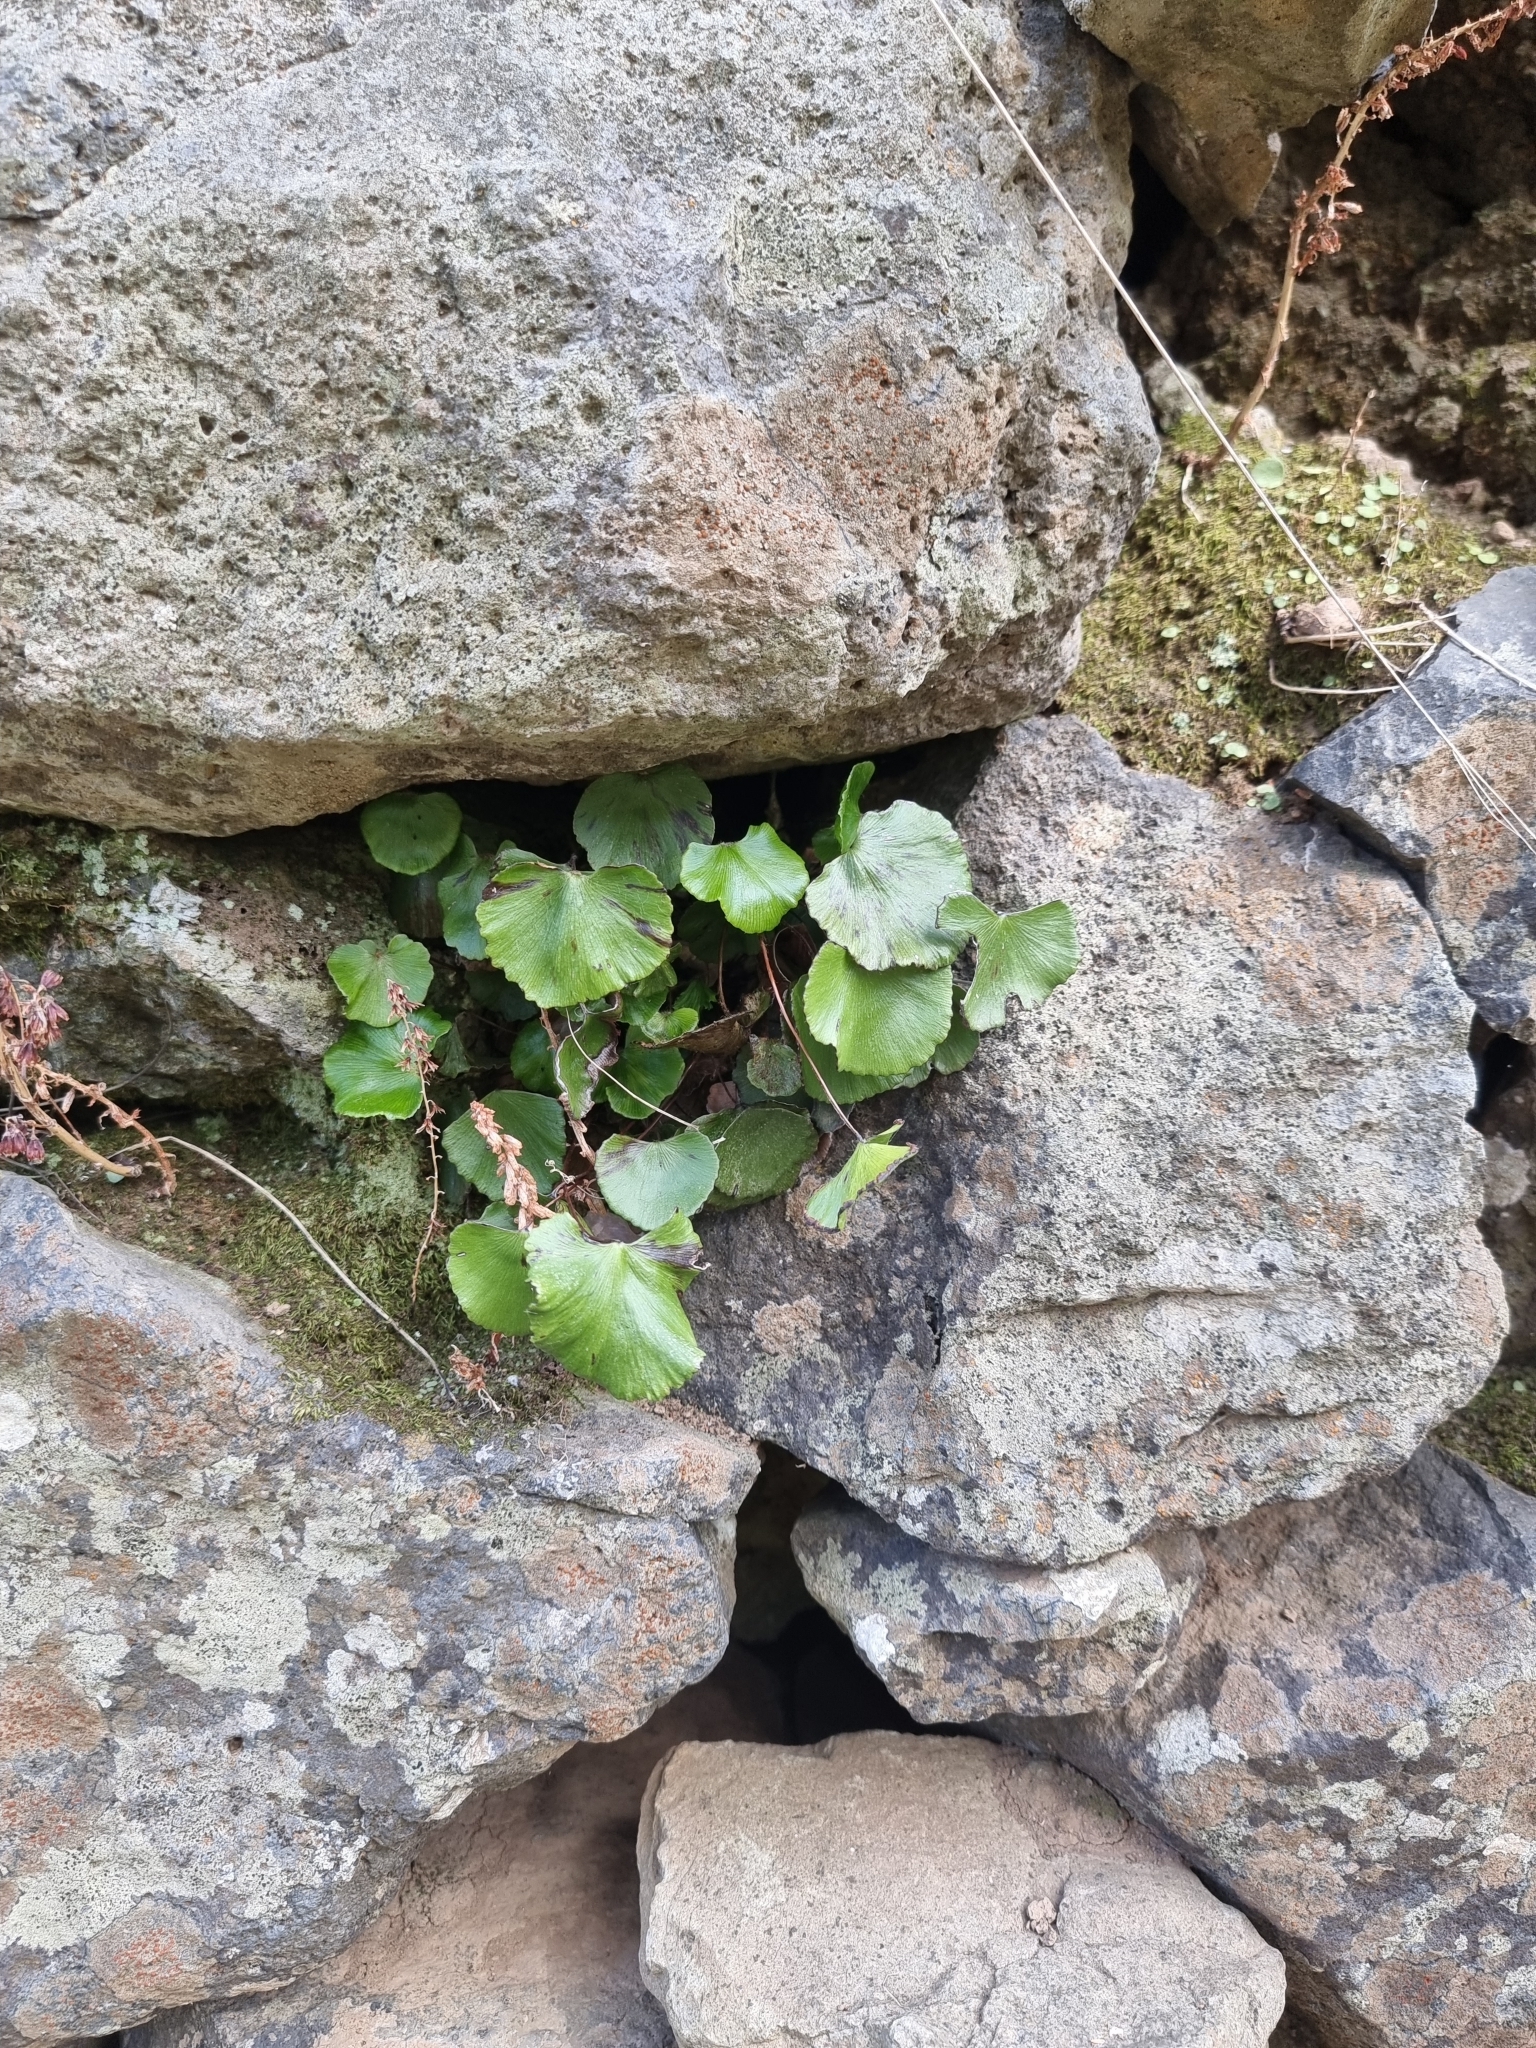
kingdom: Plantae
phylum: Tracheophyta
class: Polypodiopsida
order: Polypodiales
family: Pteridaceae
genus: Adiantum
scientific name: Adiantum reniforme
